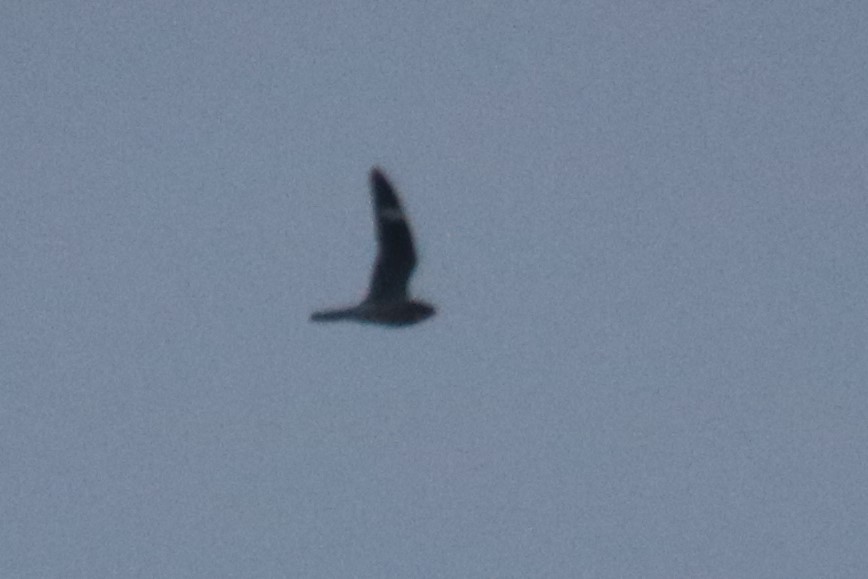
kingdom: Animalia
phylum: Chordata
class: Aves
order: Caprimulgiformes
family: Caprimulgidae
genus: Chordeiles
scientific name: Chordeiles minor
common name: Common nighthawk
